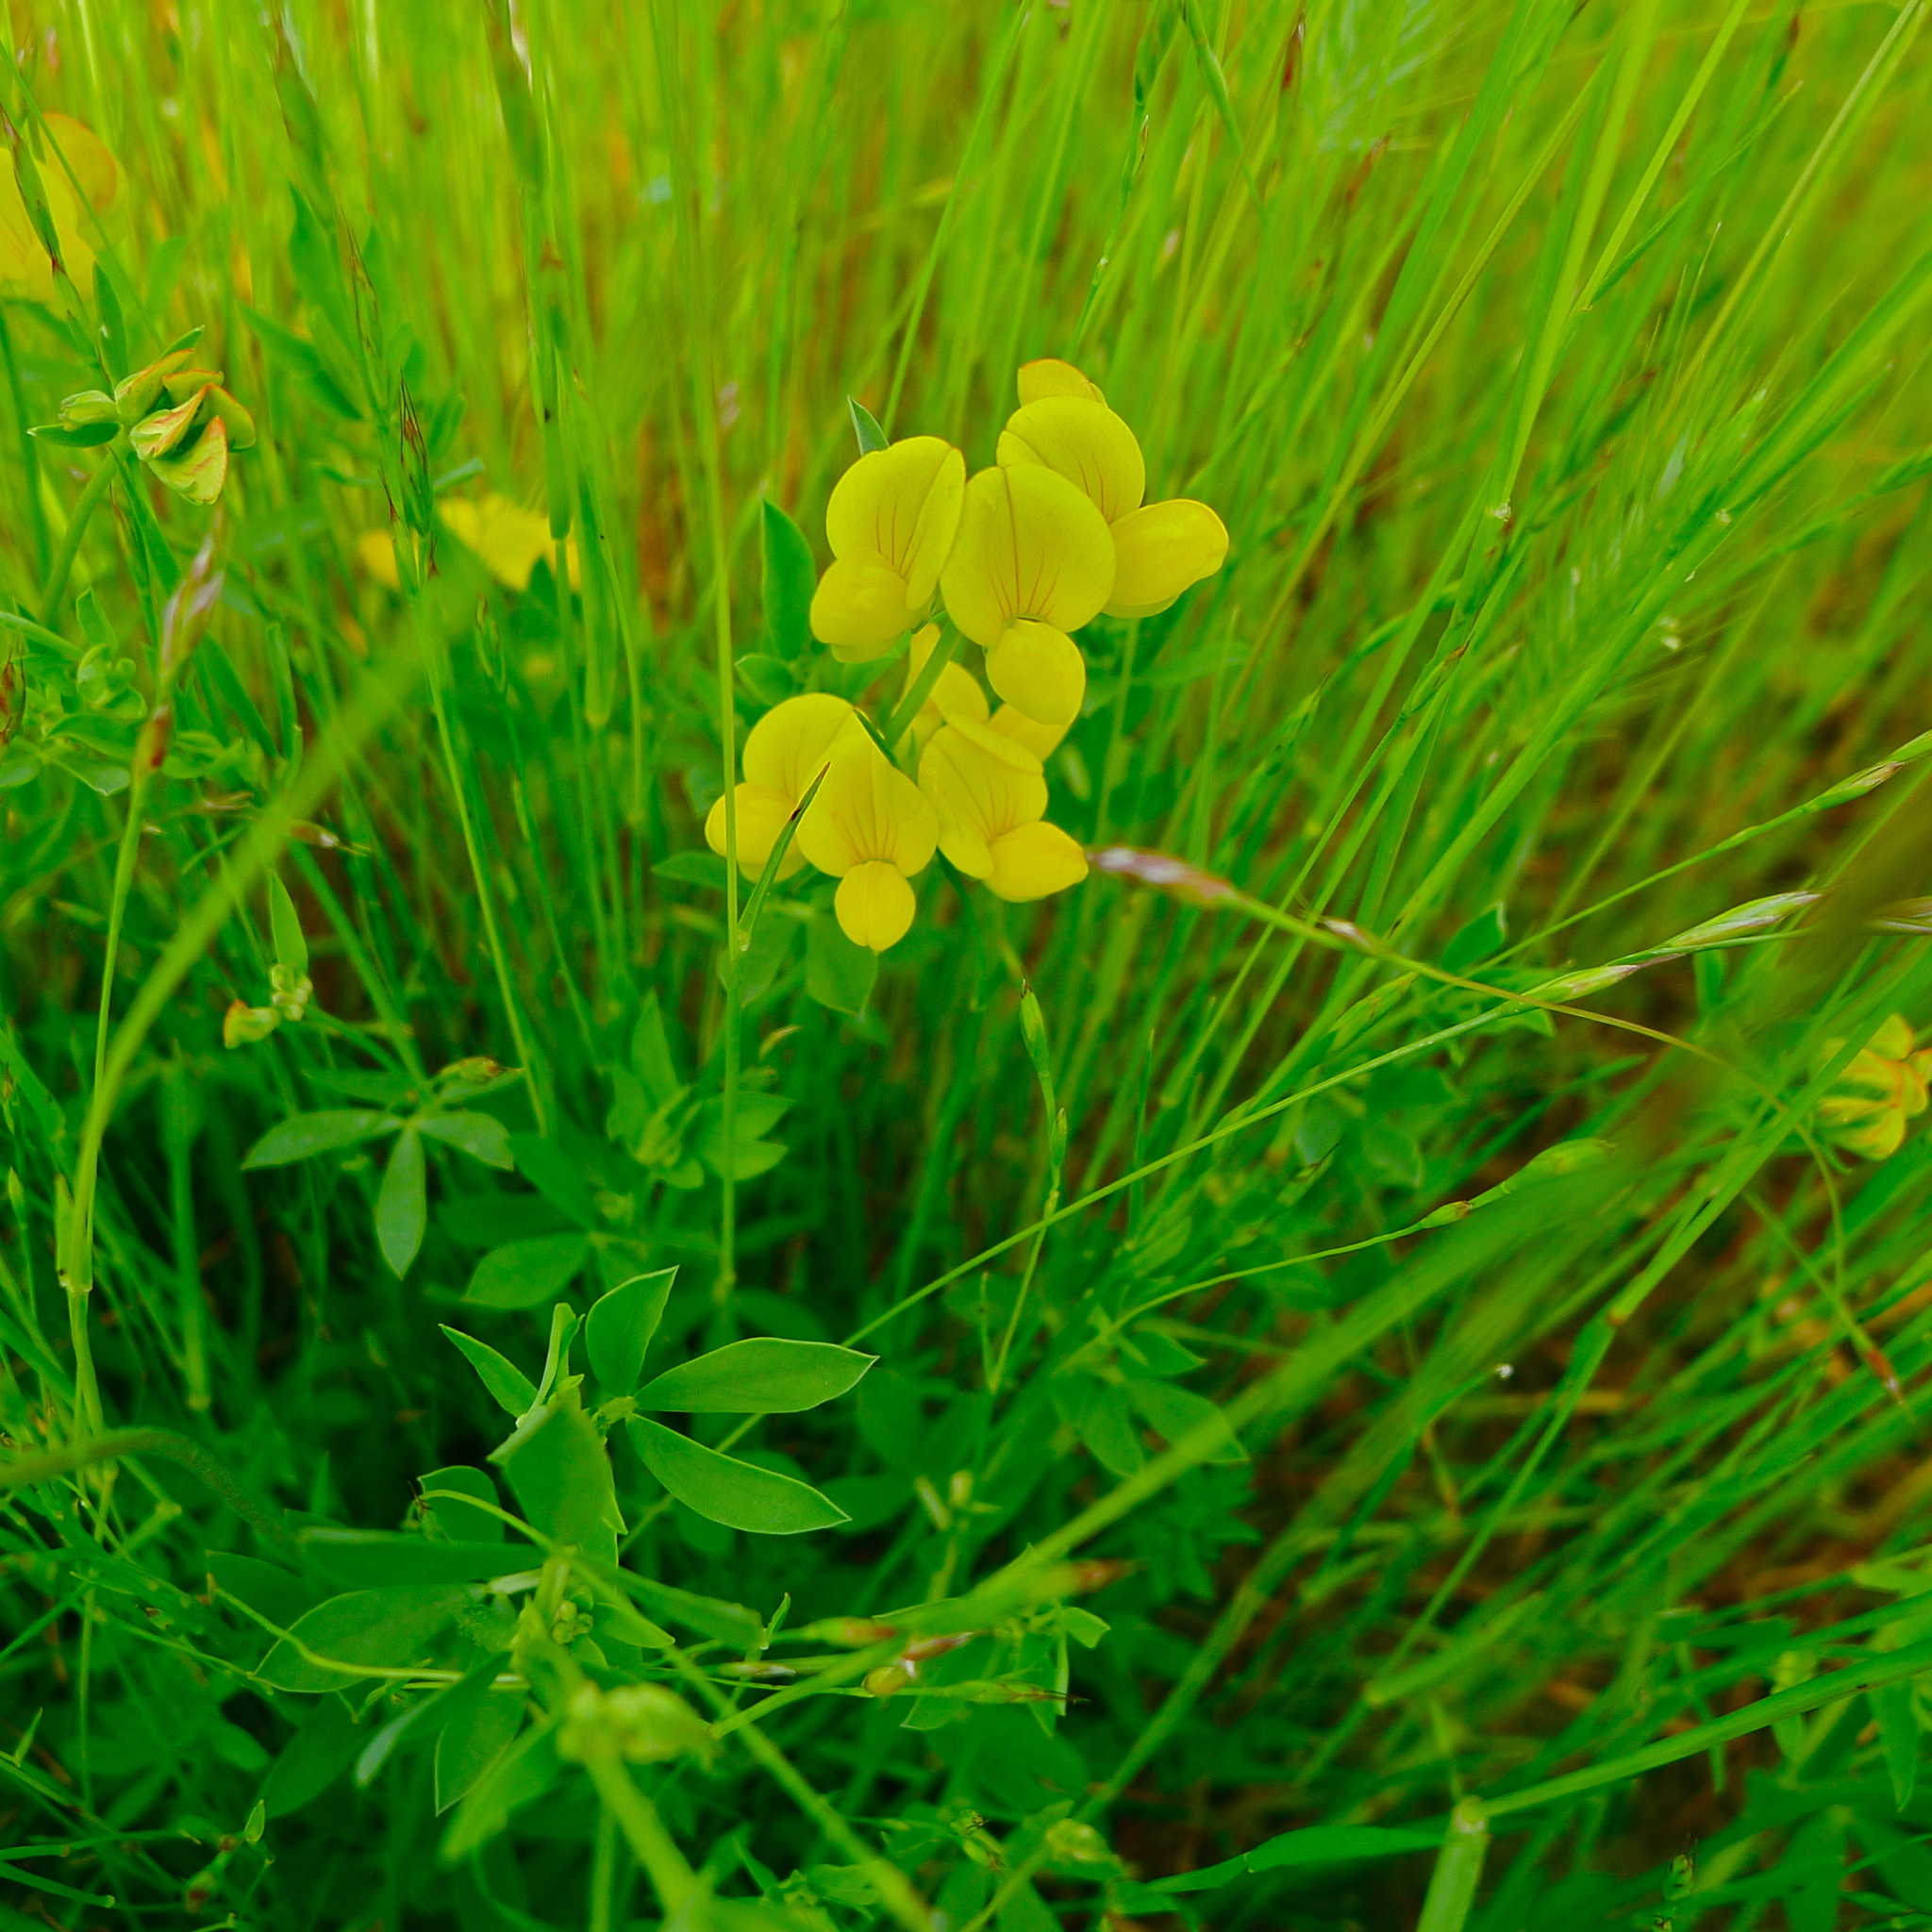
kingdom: Plantae
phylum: Tracheophyta
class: Magnoliopsida
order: Fabales
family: Fabaceae
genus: Lotus
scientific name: Lotus corniculatus
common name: Common bird's-foot-trefoil
